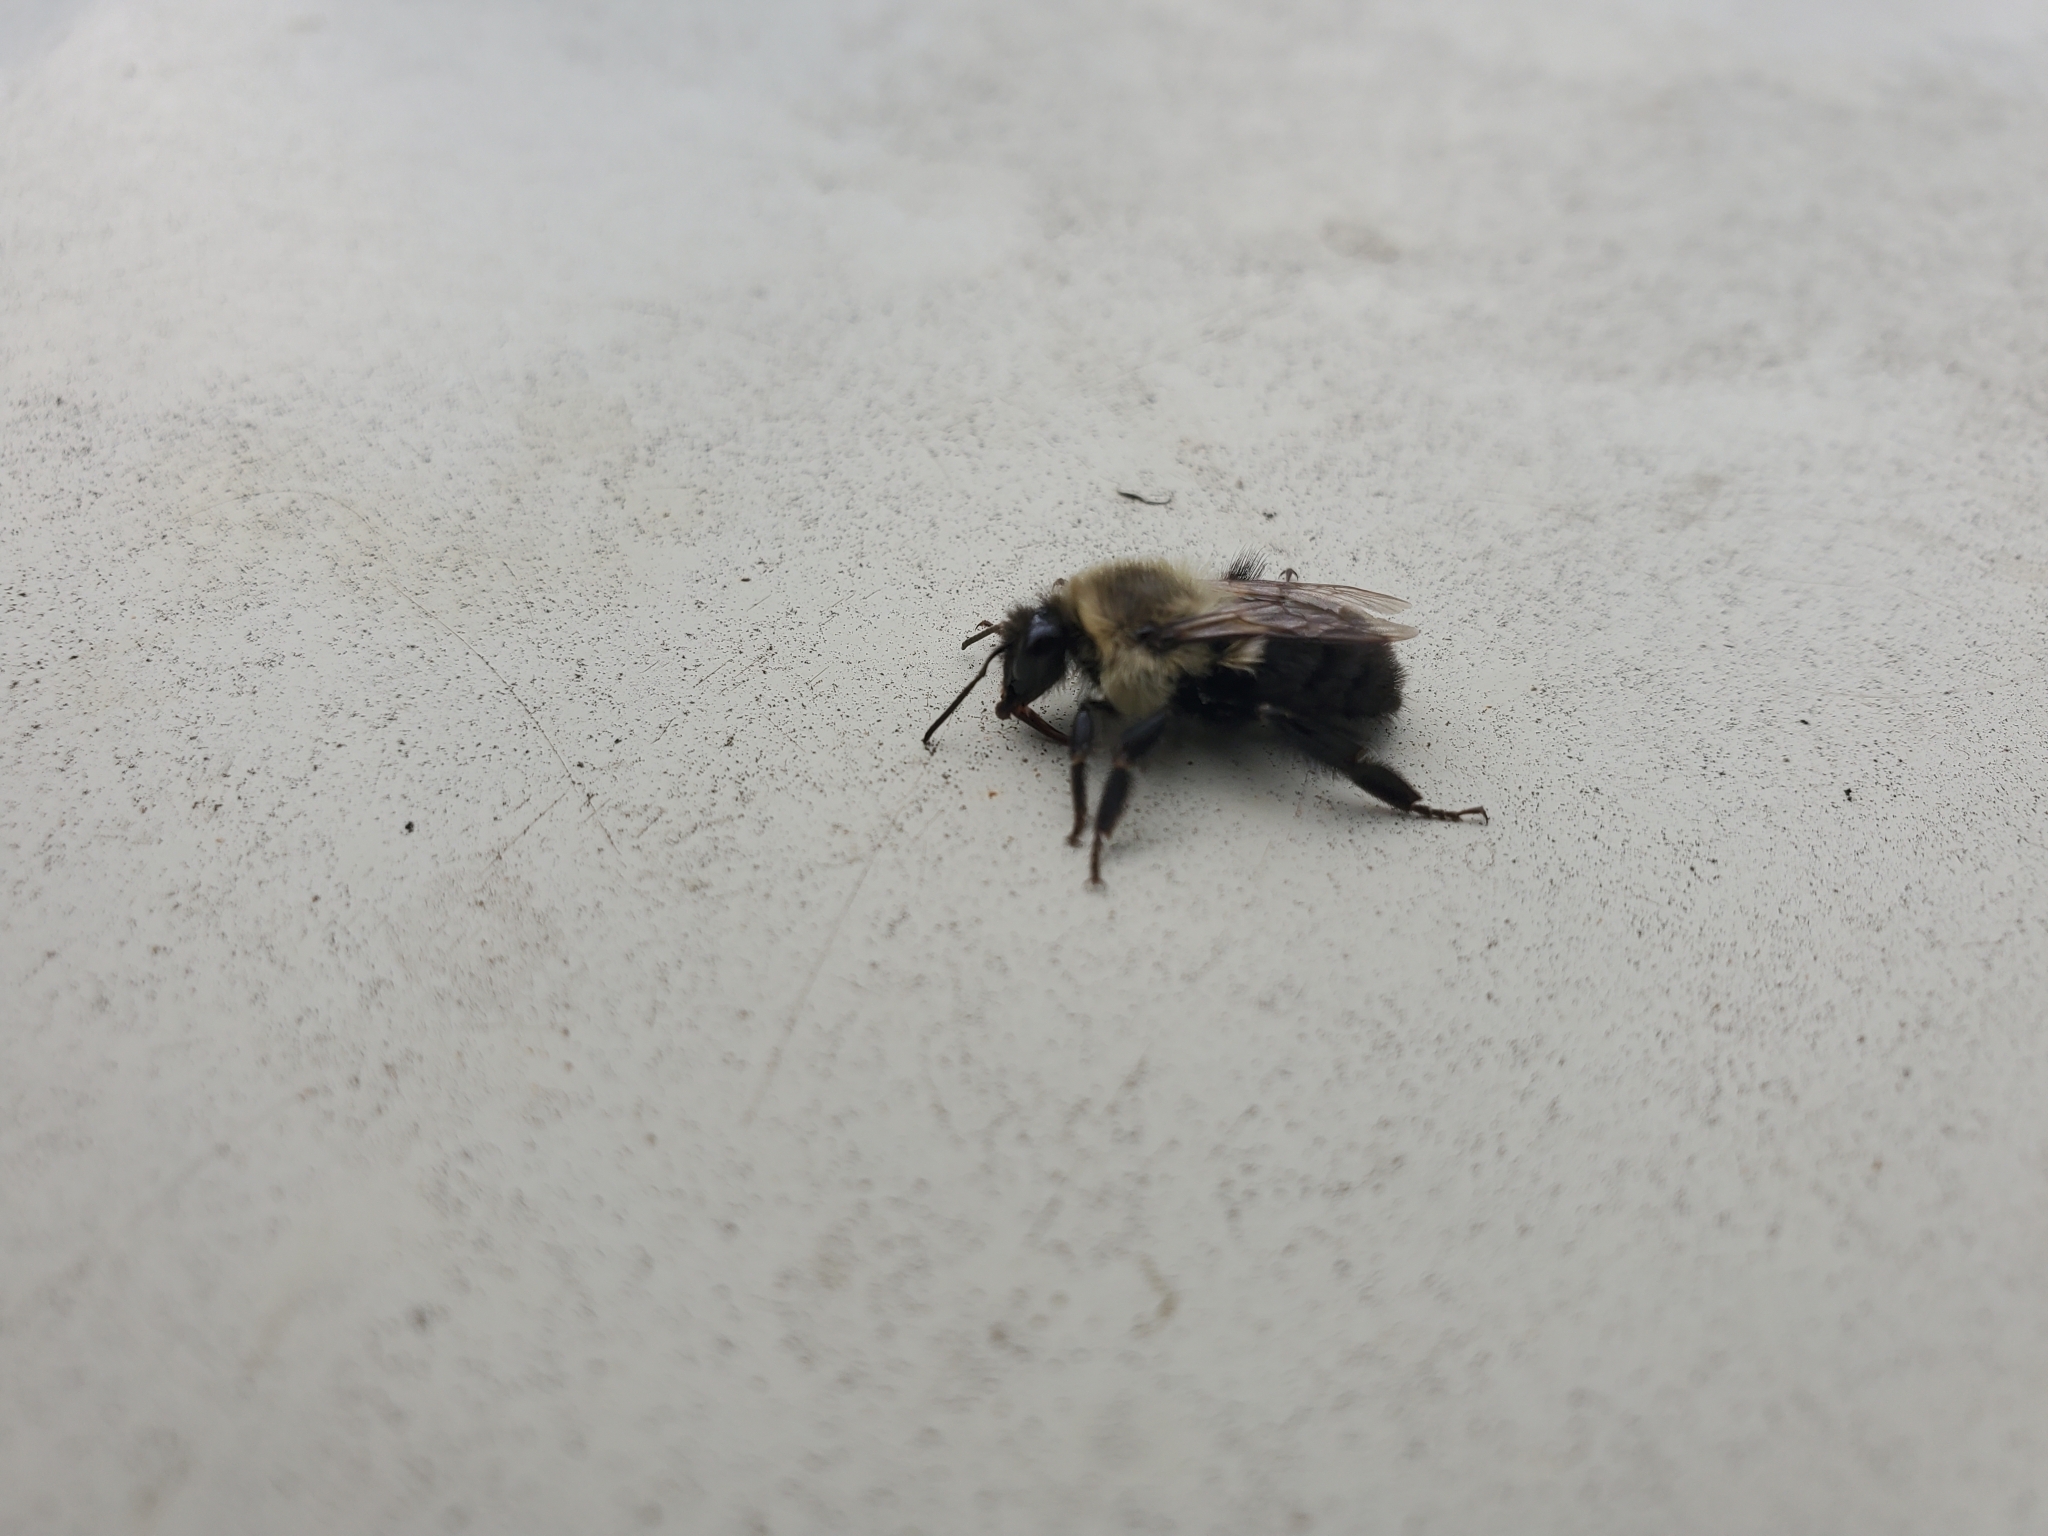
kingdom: Animalia
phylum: Arthropoda
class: Insecta
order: Hymenoptera
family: Apidae
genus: Bombus
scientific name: Bombus impatiens
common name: Common eastern bumble bee
